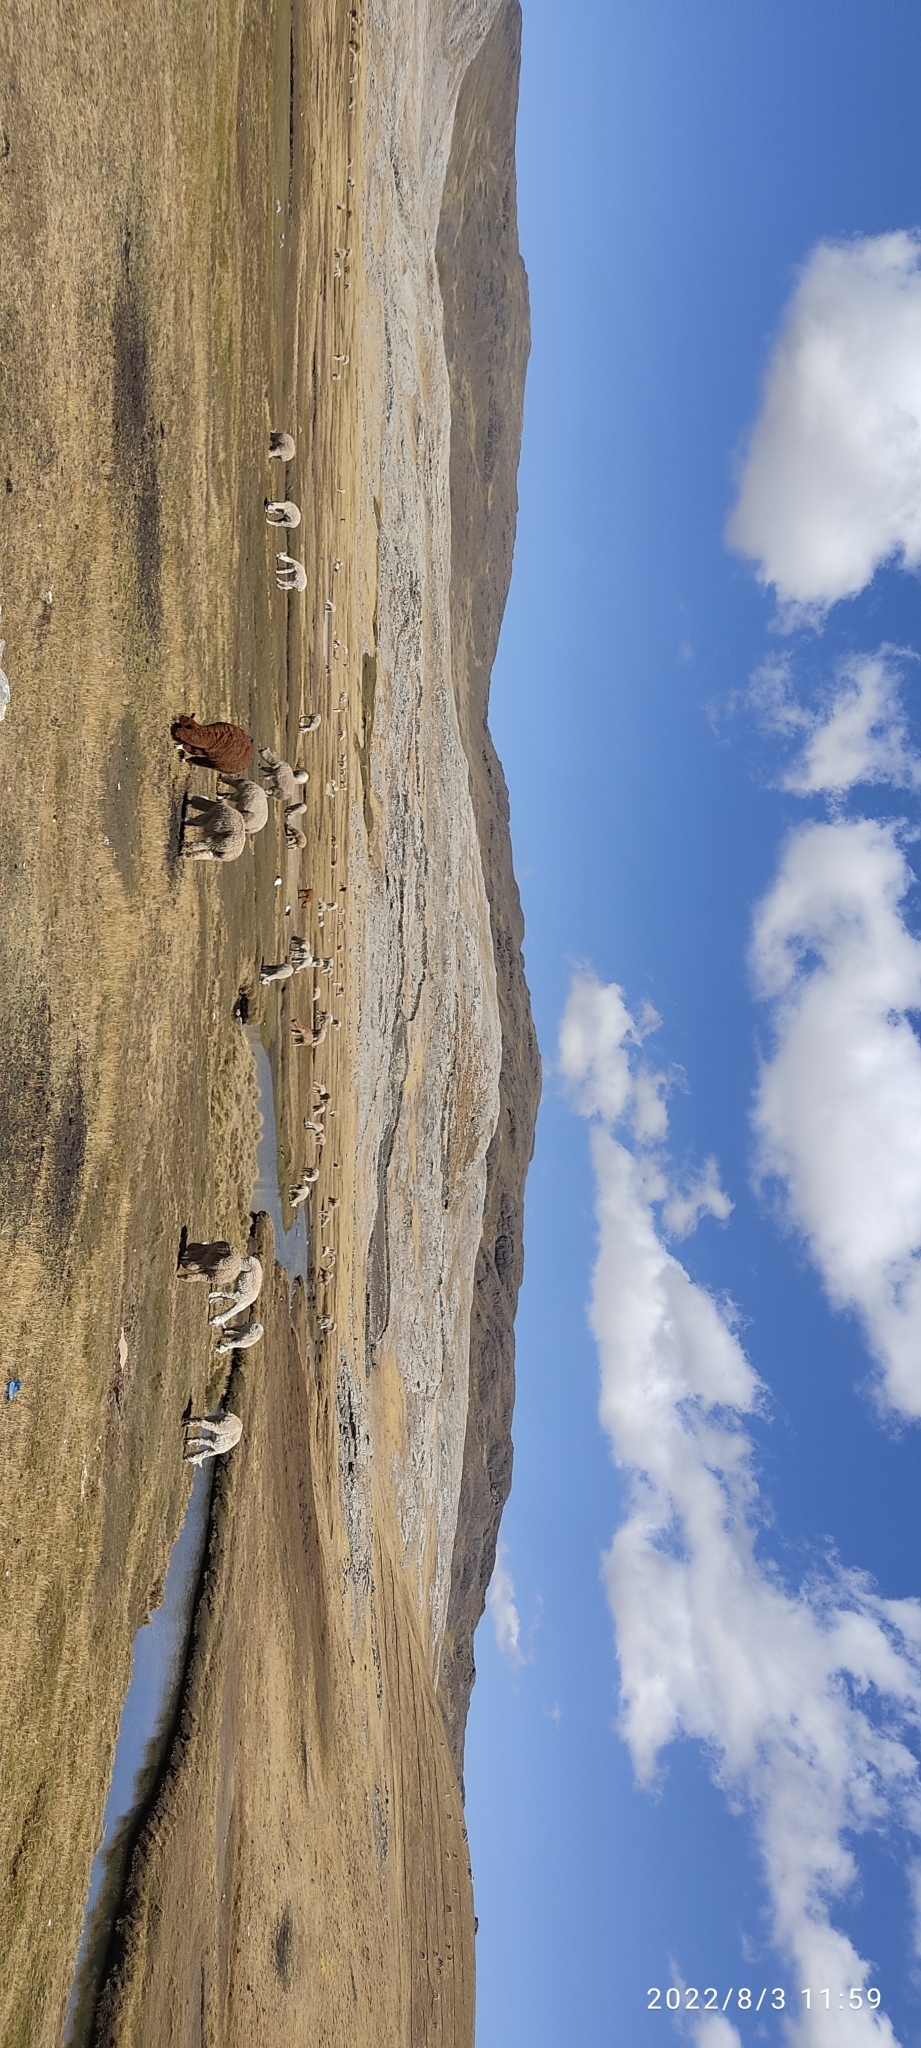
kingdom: Animalia
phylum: Chordata
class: Mammalia
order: Artiodactyla
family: Camelidae
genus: Vicugna
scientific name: Vicugna pacos
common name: Alpaca
